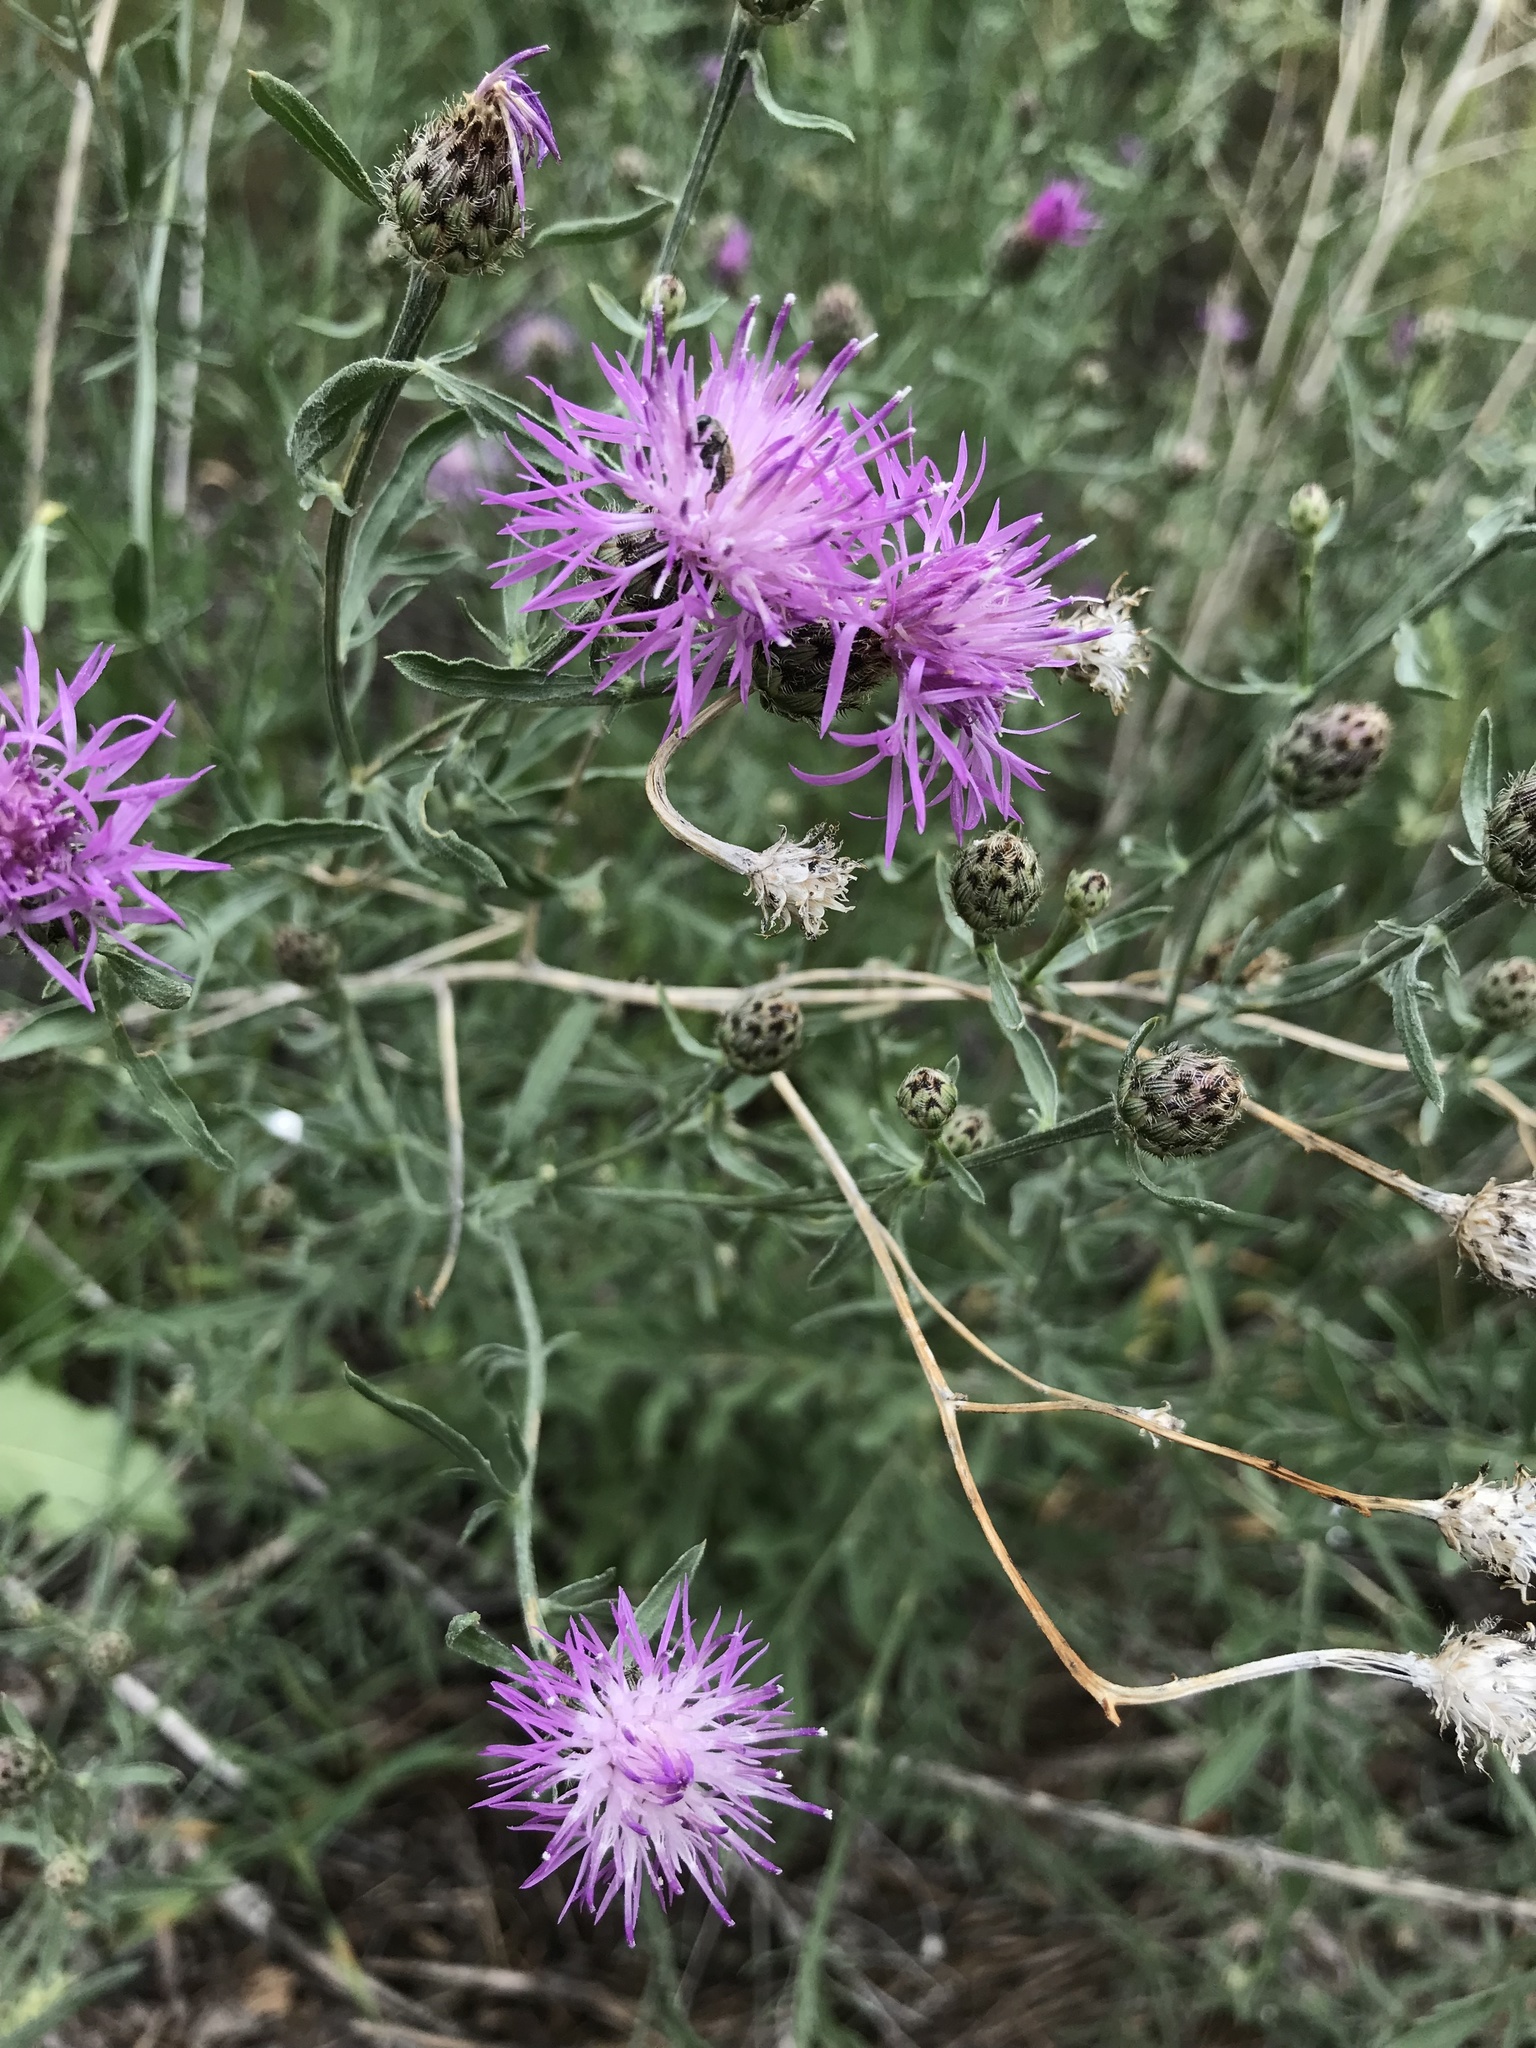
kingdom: Plantae
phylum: Tracheophyta
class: Magnoliopsida
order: Asterales
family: Asteraceae
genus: Centaurea
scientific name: Centaurea stoebe
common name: Spotted knapweed
